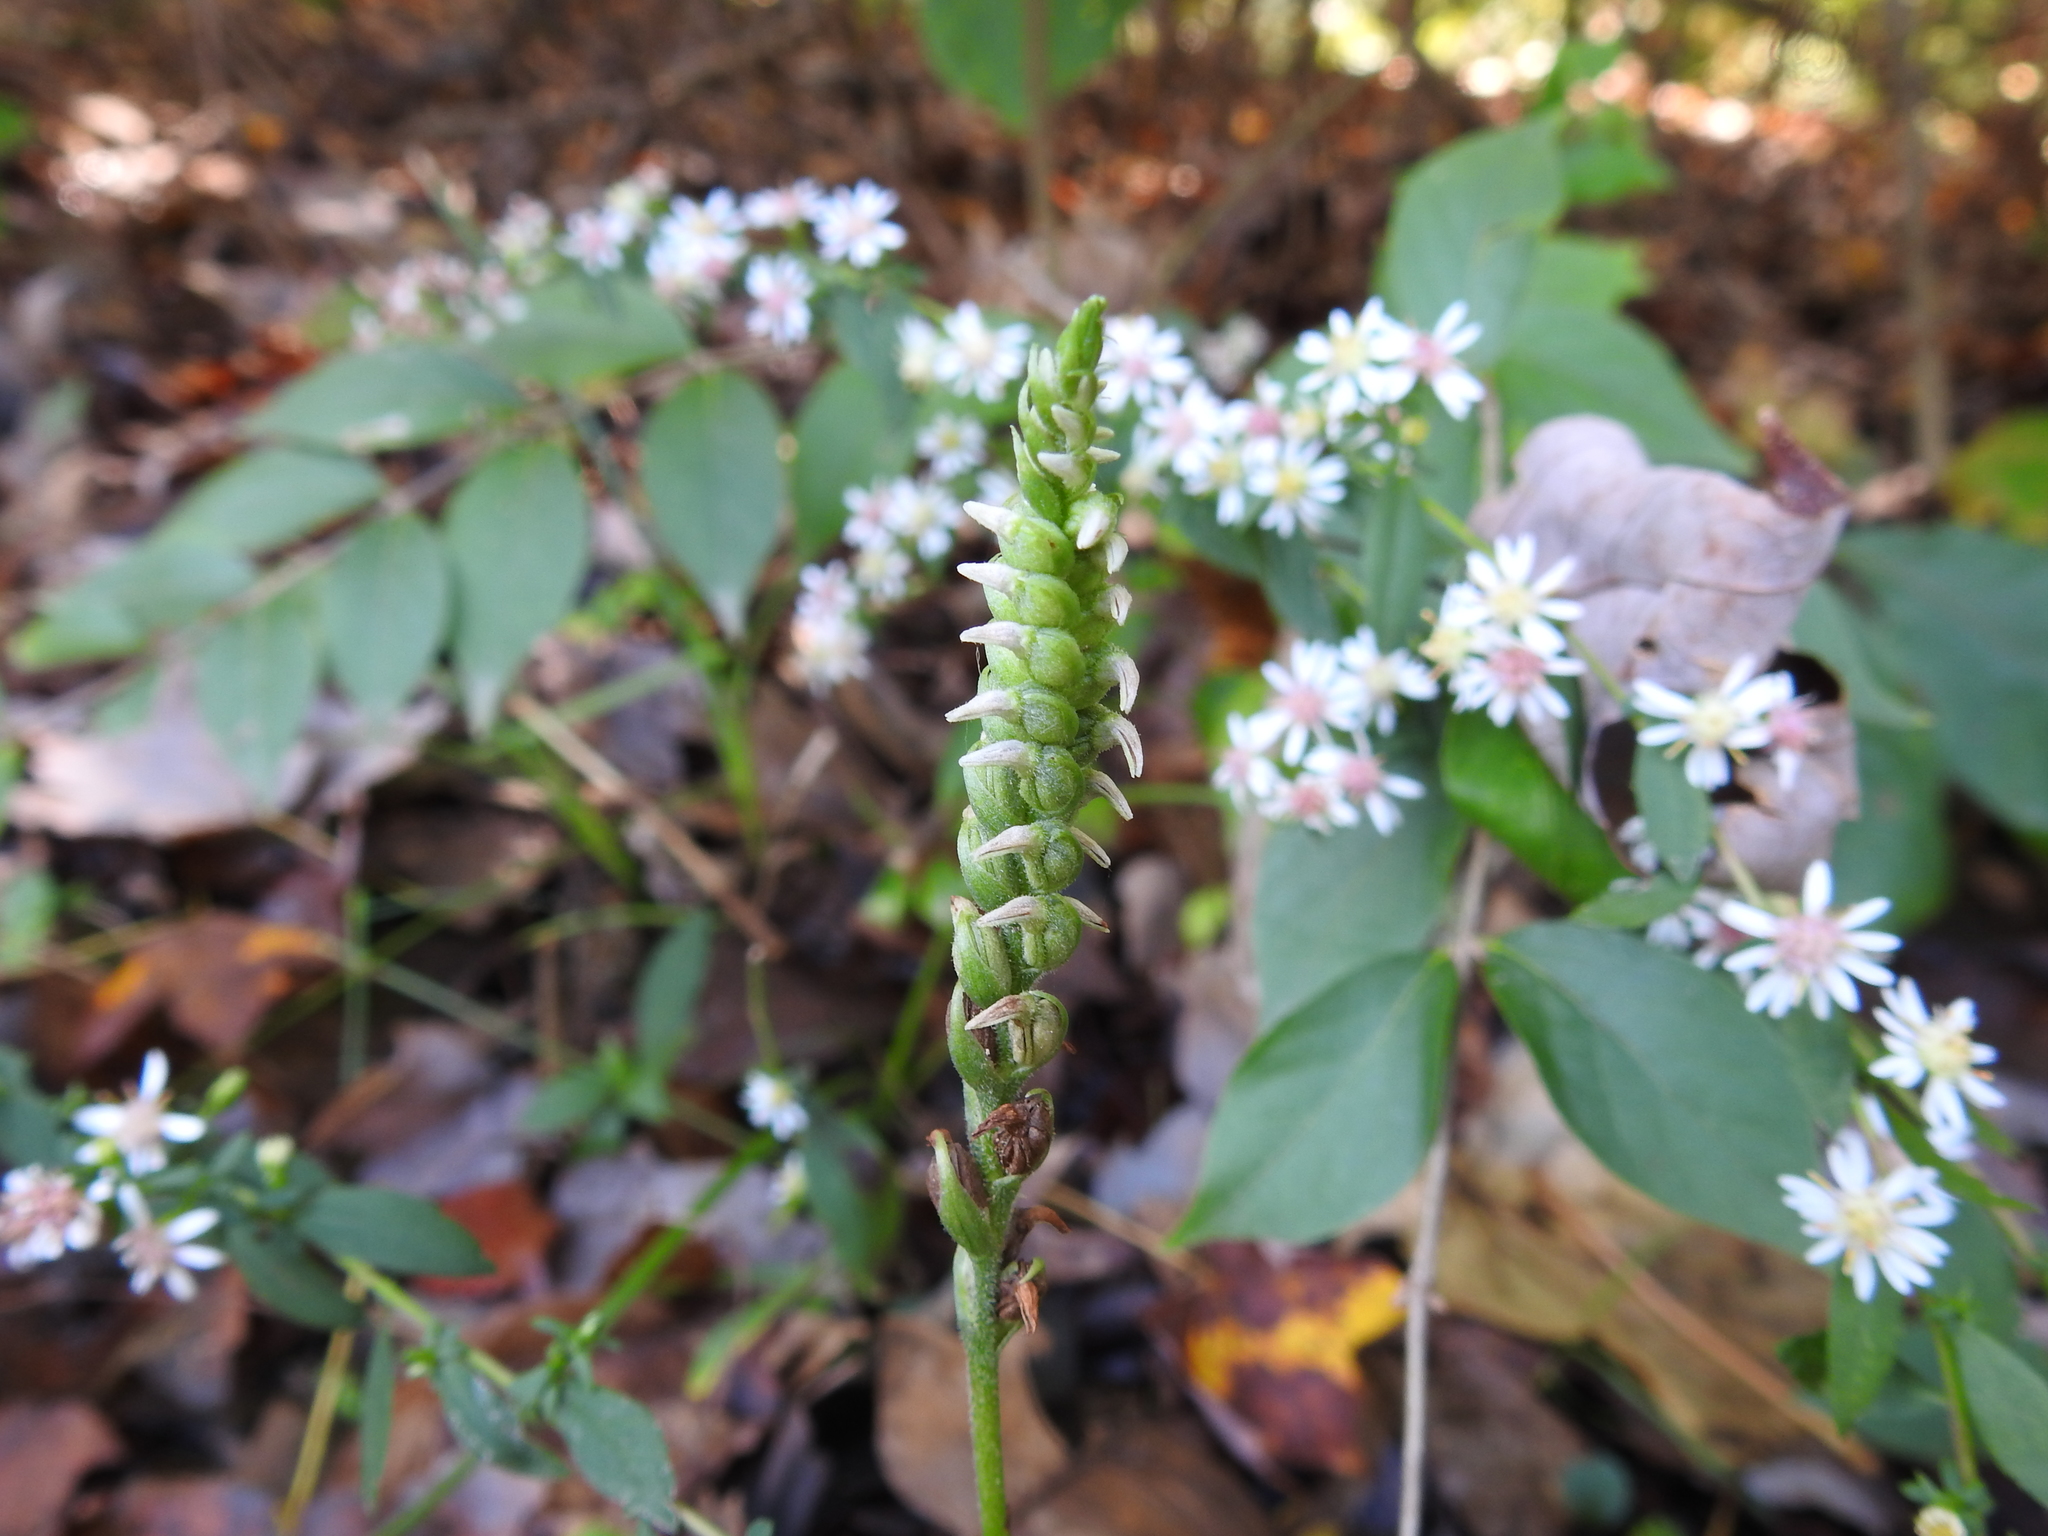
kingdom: Plantae
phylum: Tracheophyta
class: Liliopsida
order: Asparagales
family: Orchidaceae
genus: Spiranthes
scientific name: Spiranthes ovalis
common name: October ladies'-tresses
